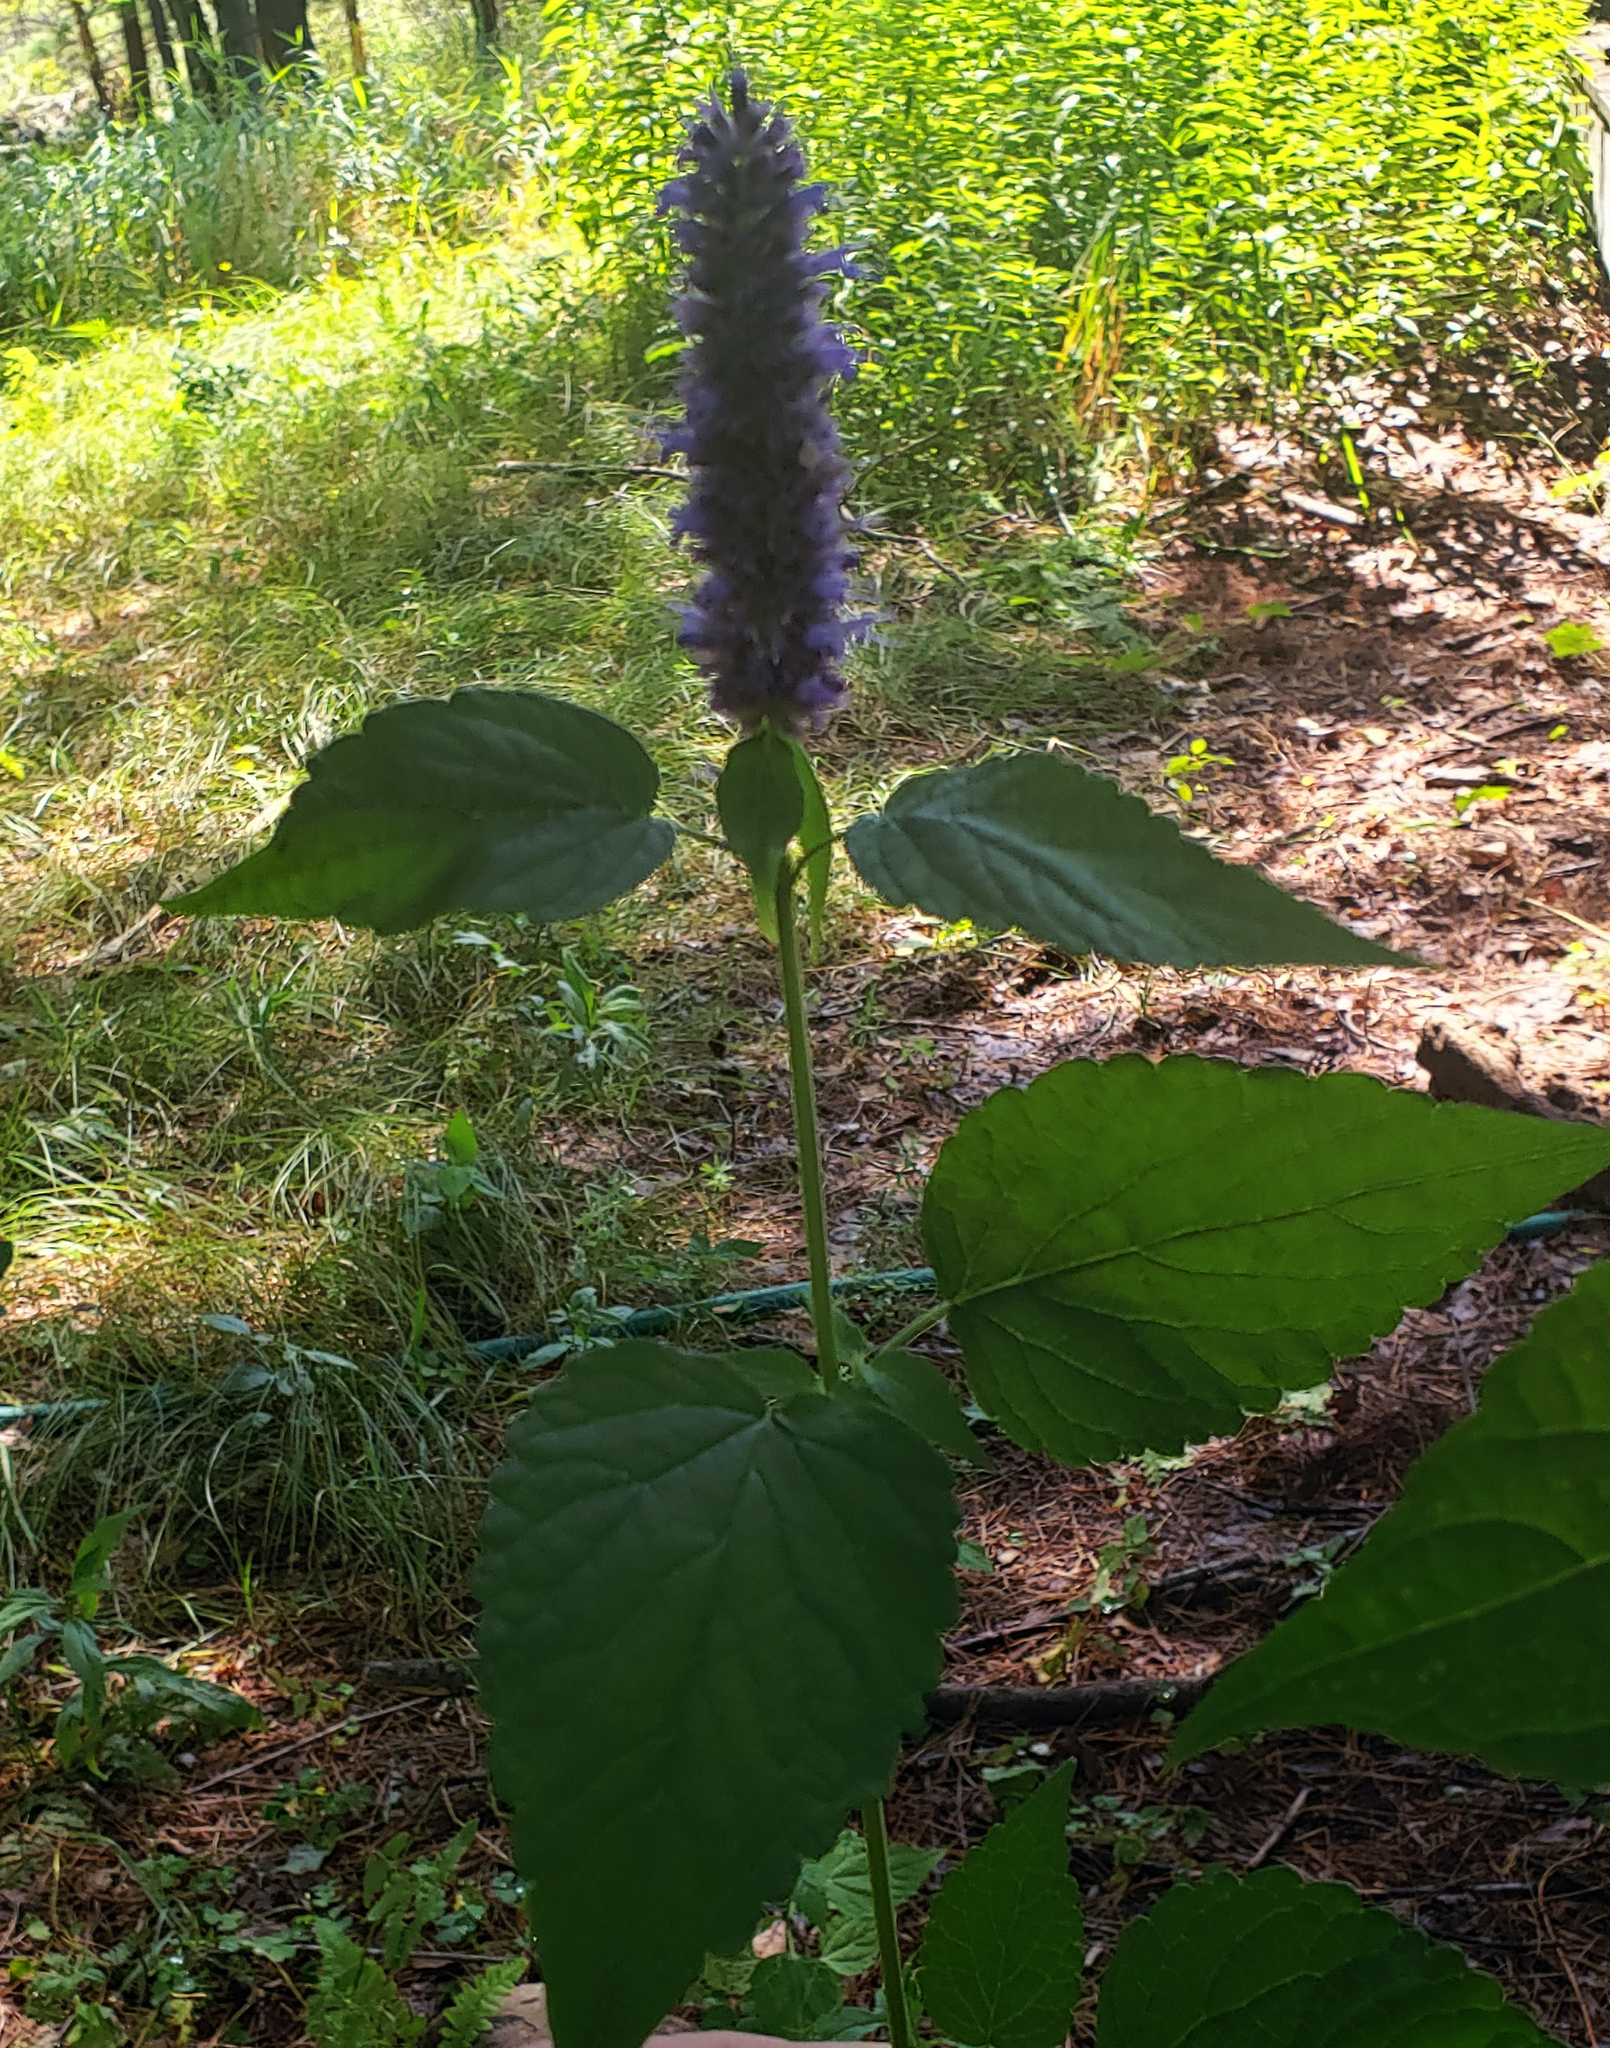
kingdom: Plantae
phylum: Tracheophyta
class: Magnoliopsida
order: Lamiales
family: Lamiaceae
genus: Agastache
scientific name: Agastache foeniculum
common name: Anise hyssop
